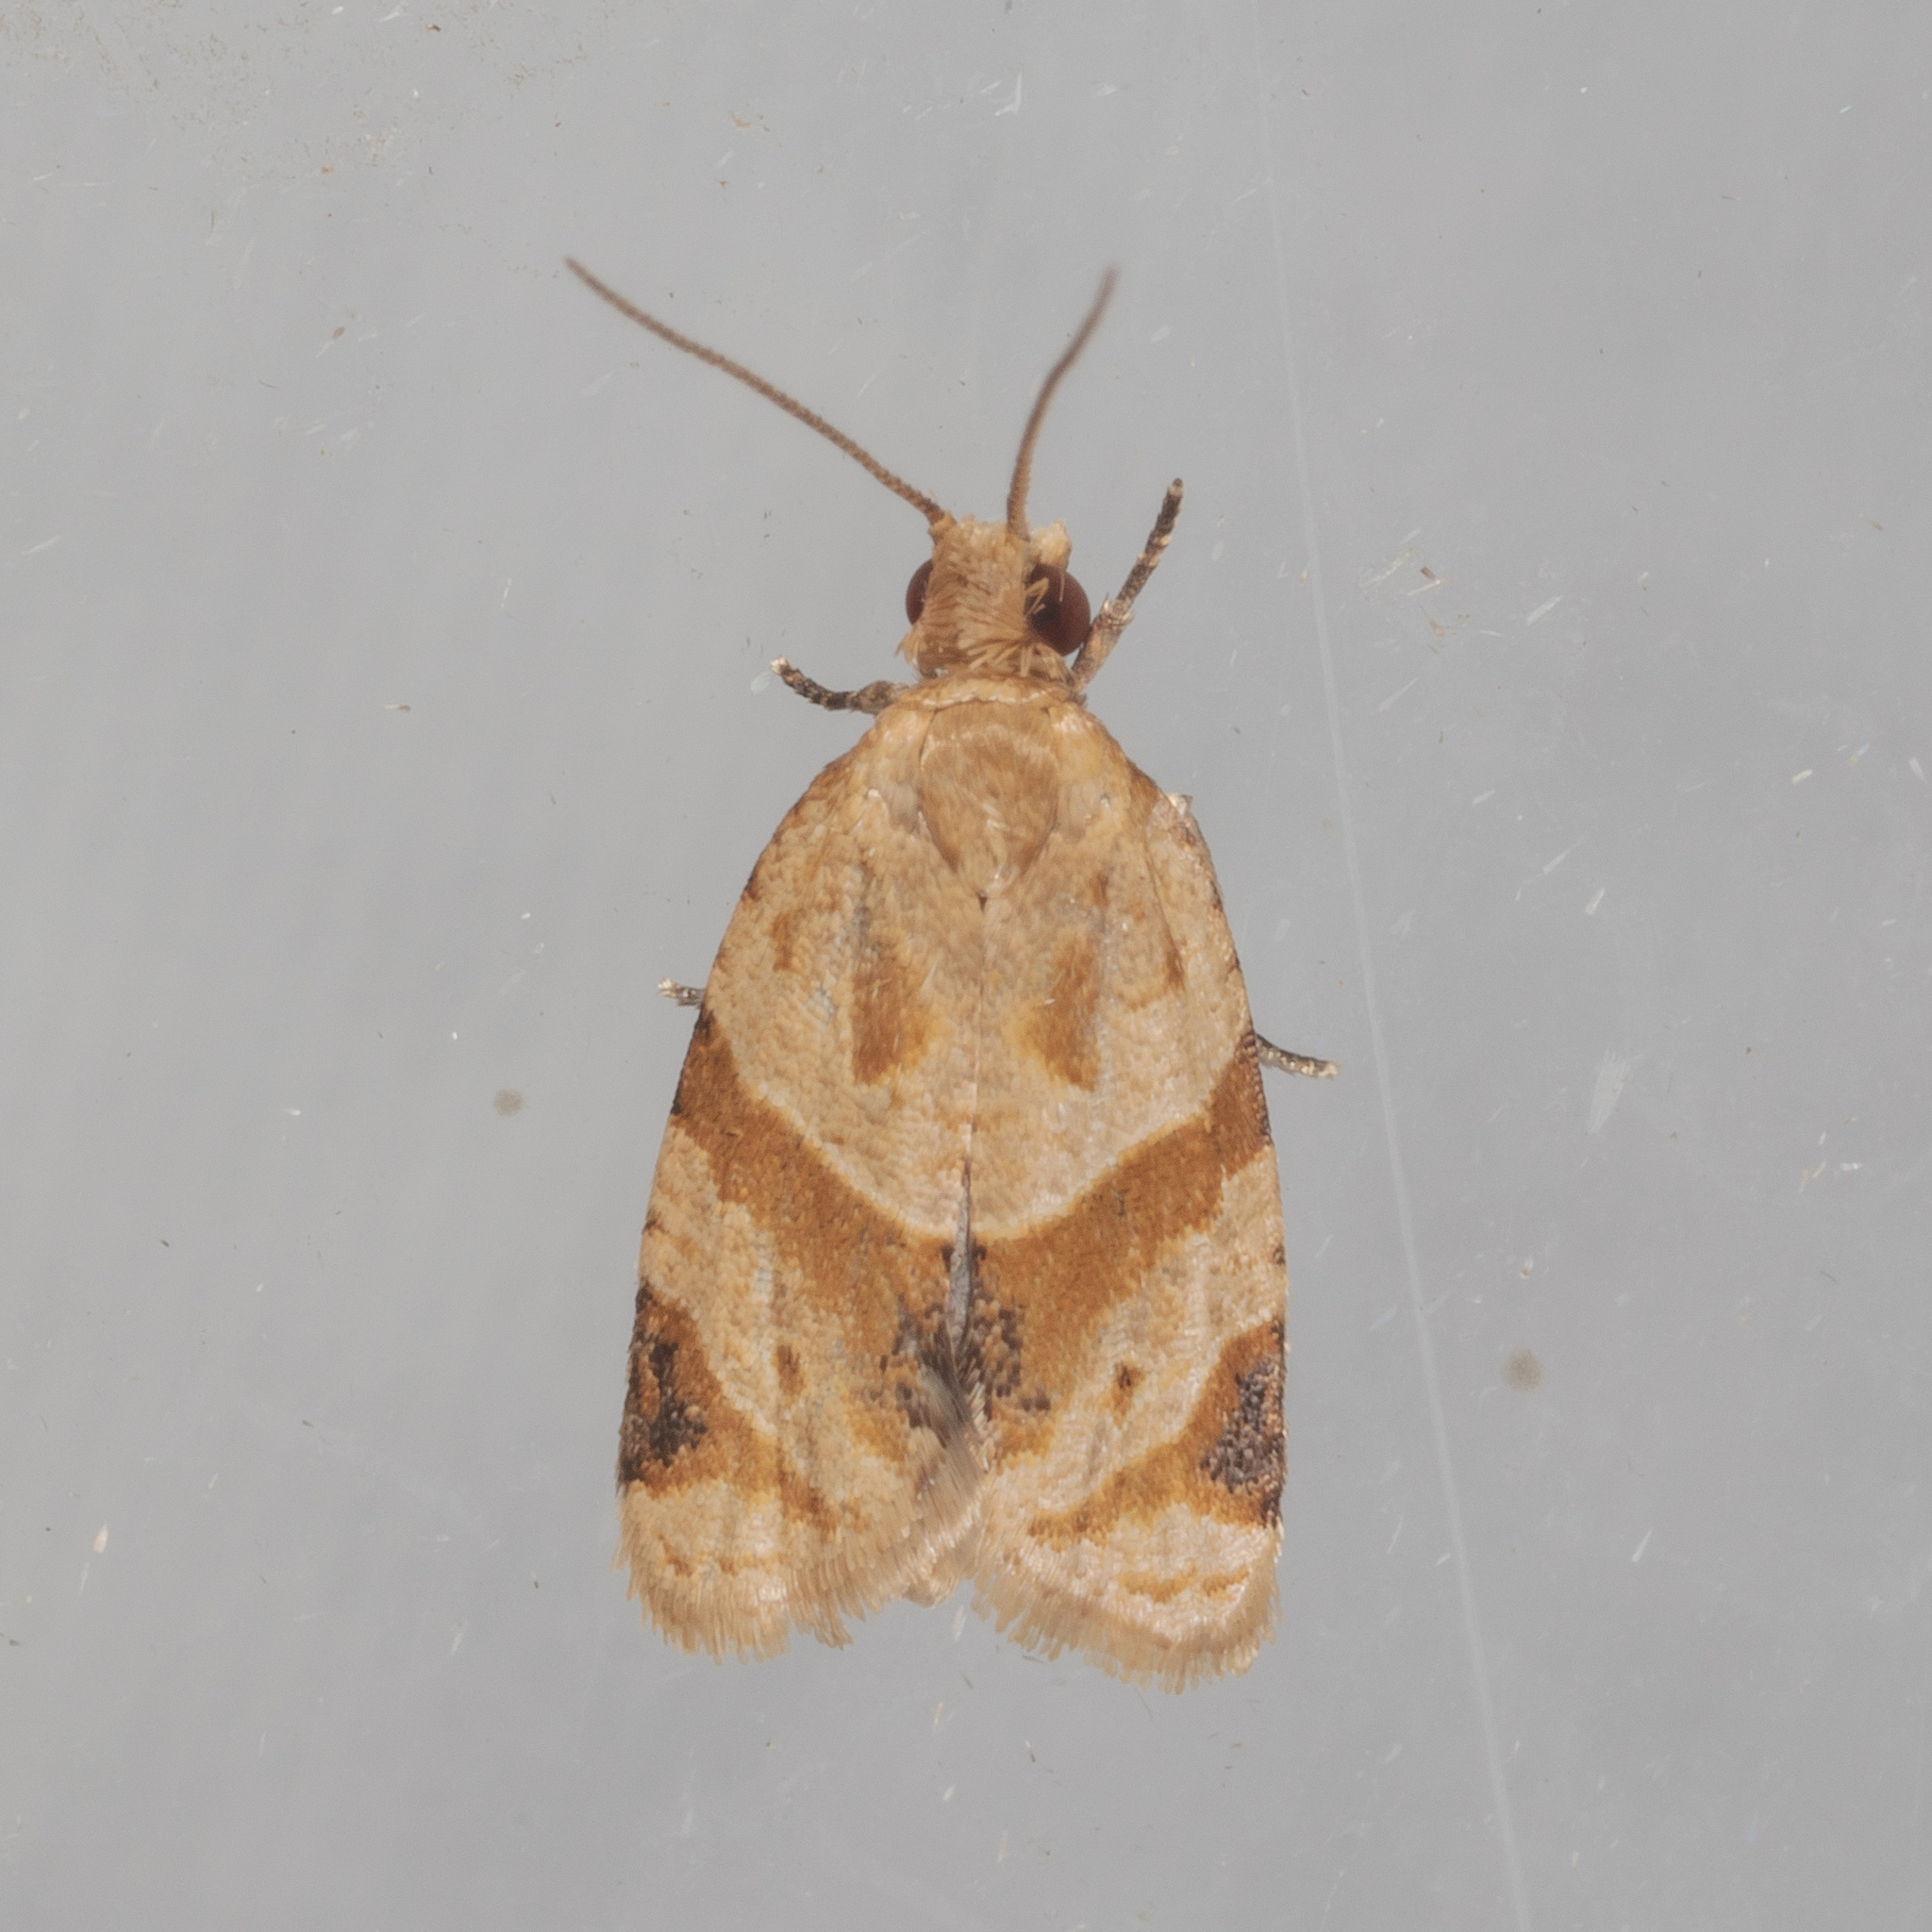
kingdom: Animalia
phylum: Arthropoda
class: Insecta
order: Lepidoptera
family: Tortricidae
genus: Clepsis
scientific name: Clepsis peritana
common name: Garden tortrix
